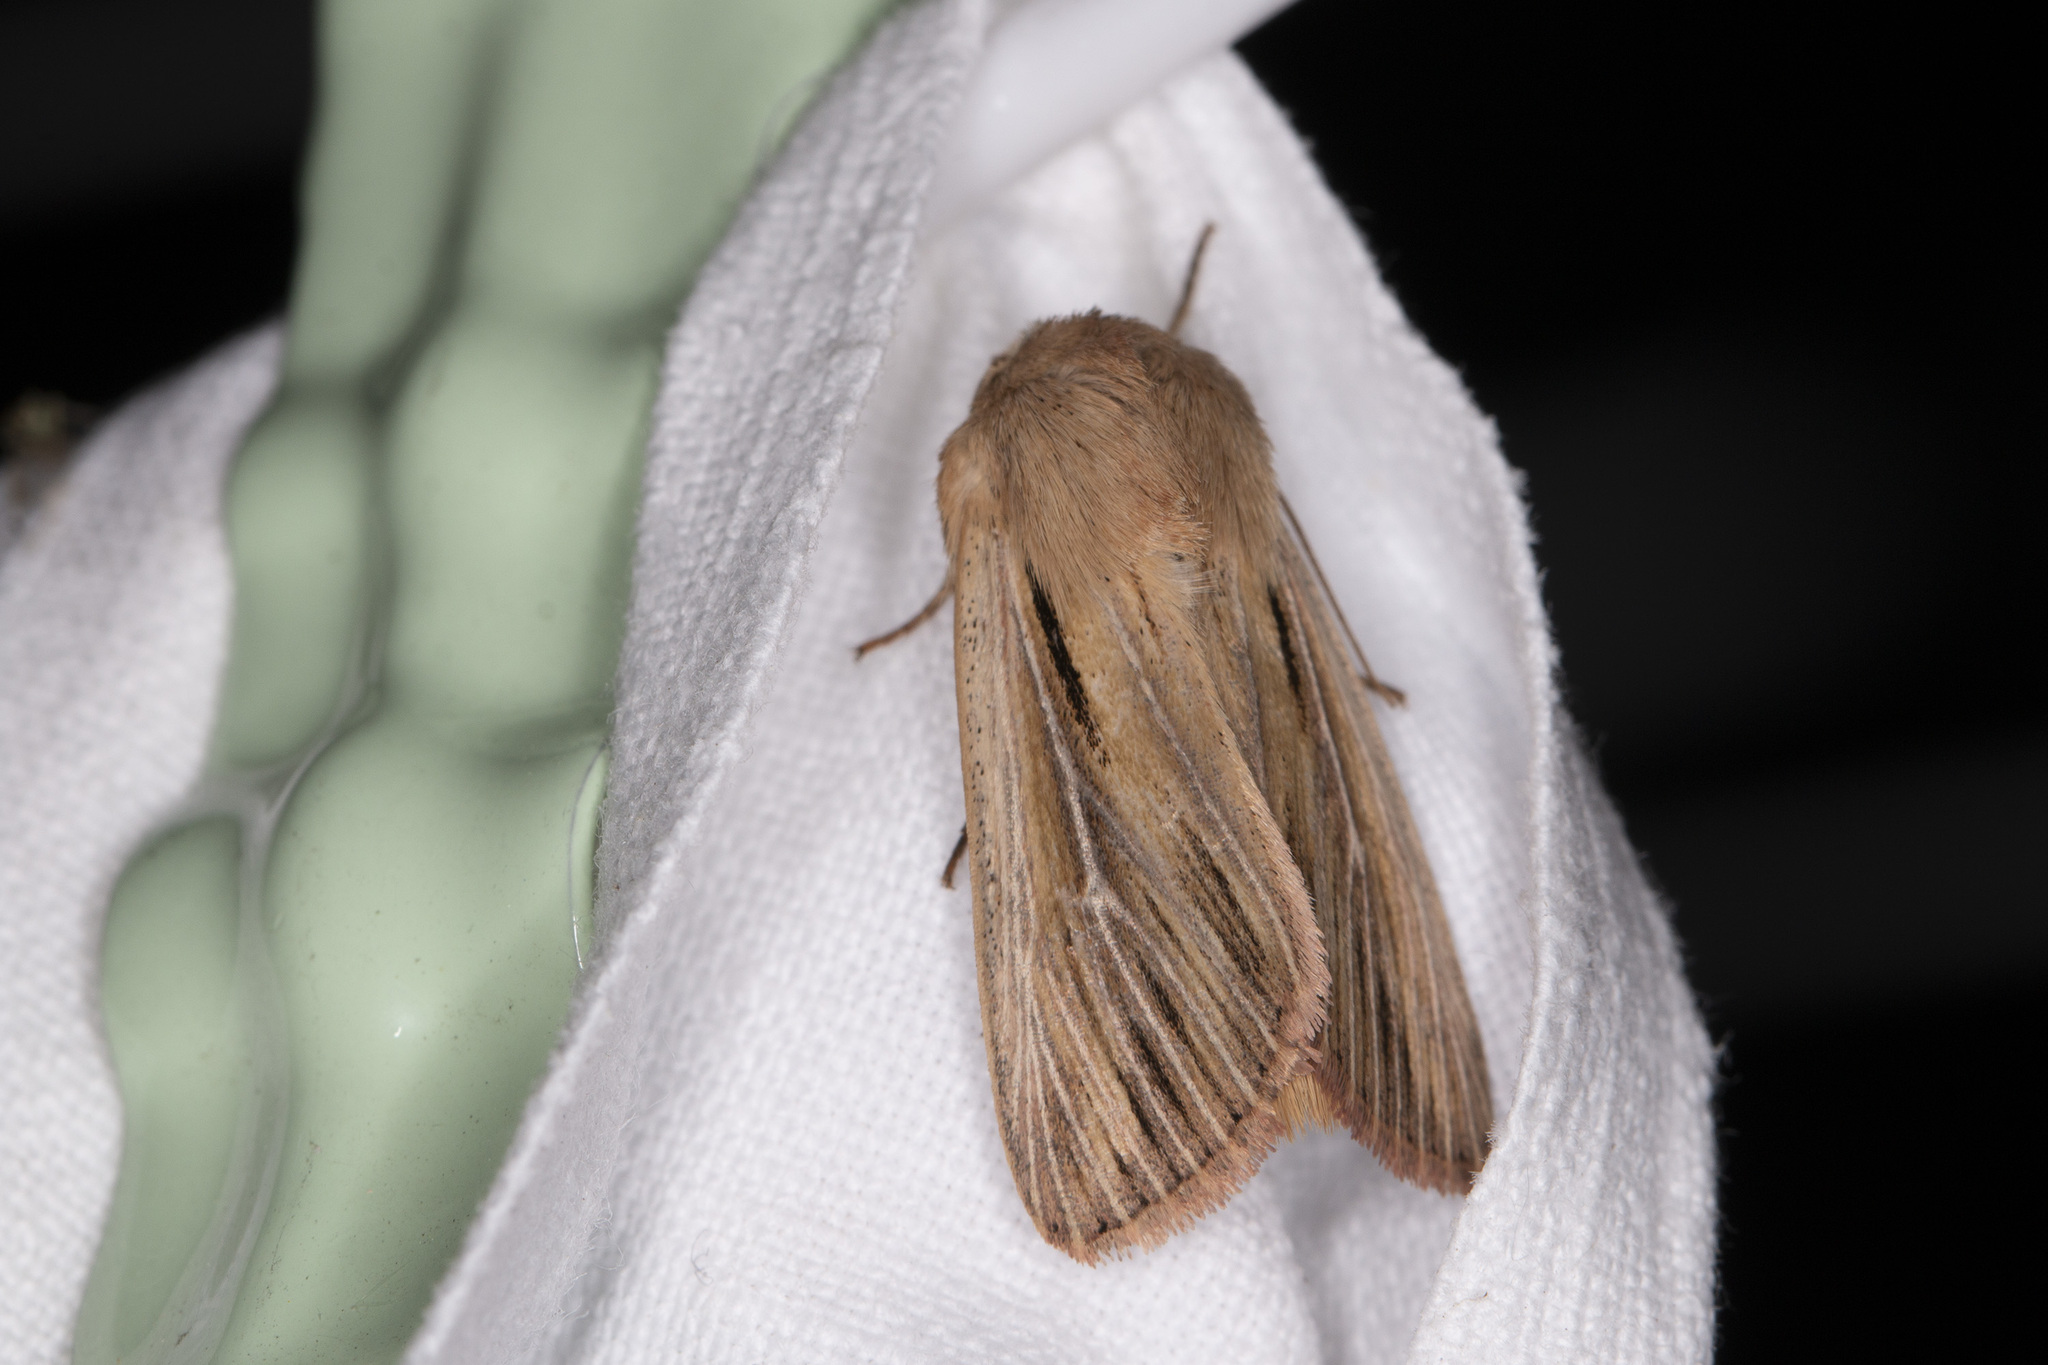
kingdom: Animalia
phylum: Arthropoda
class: Insecta
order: Lepidoptera
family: Noctuidae
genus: Leucania
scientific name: Leucania comma
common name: Shoulder-striped wainscot
